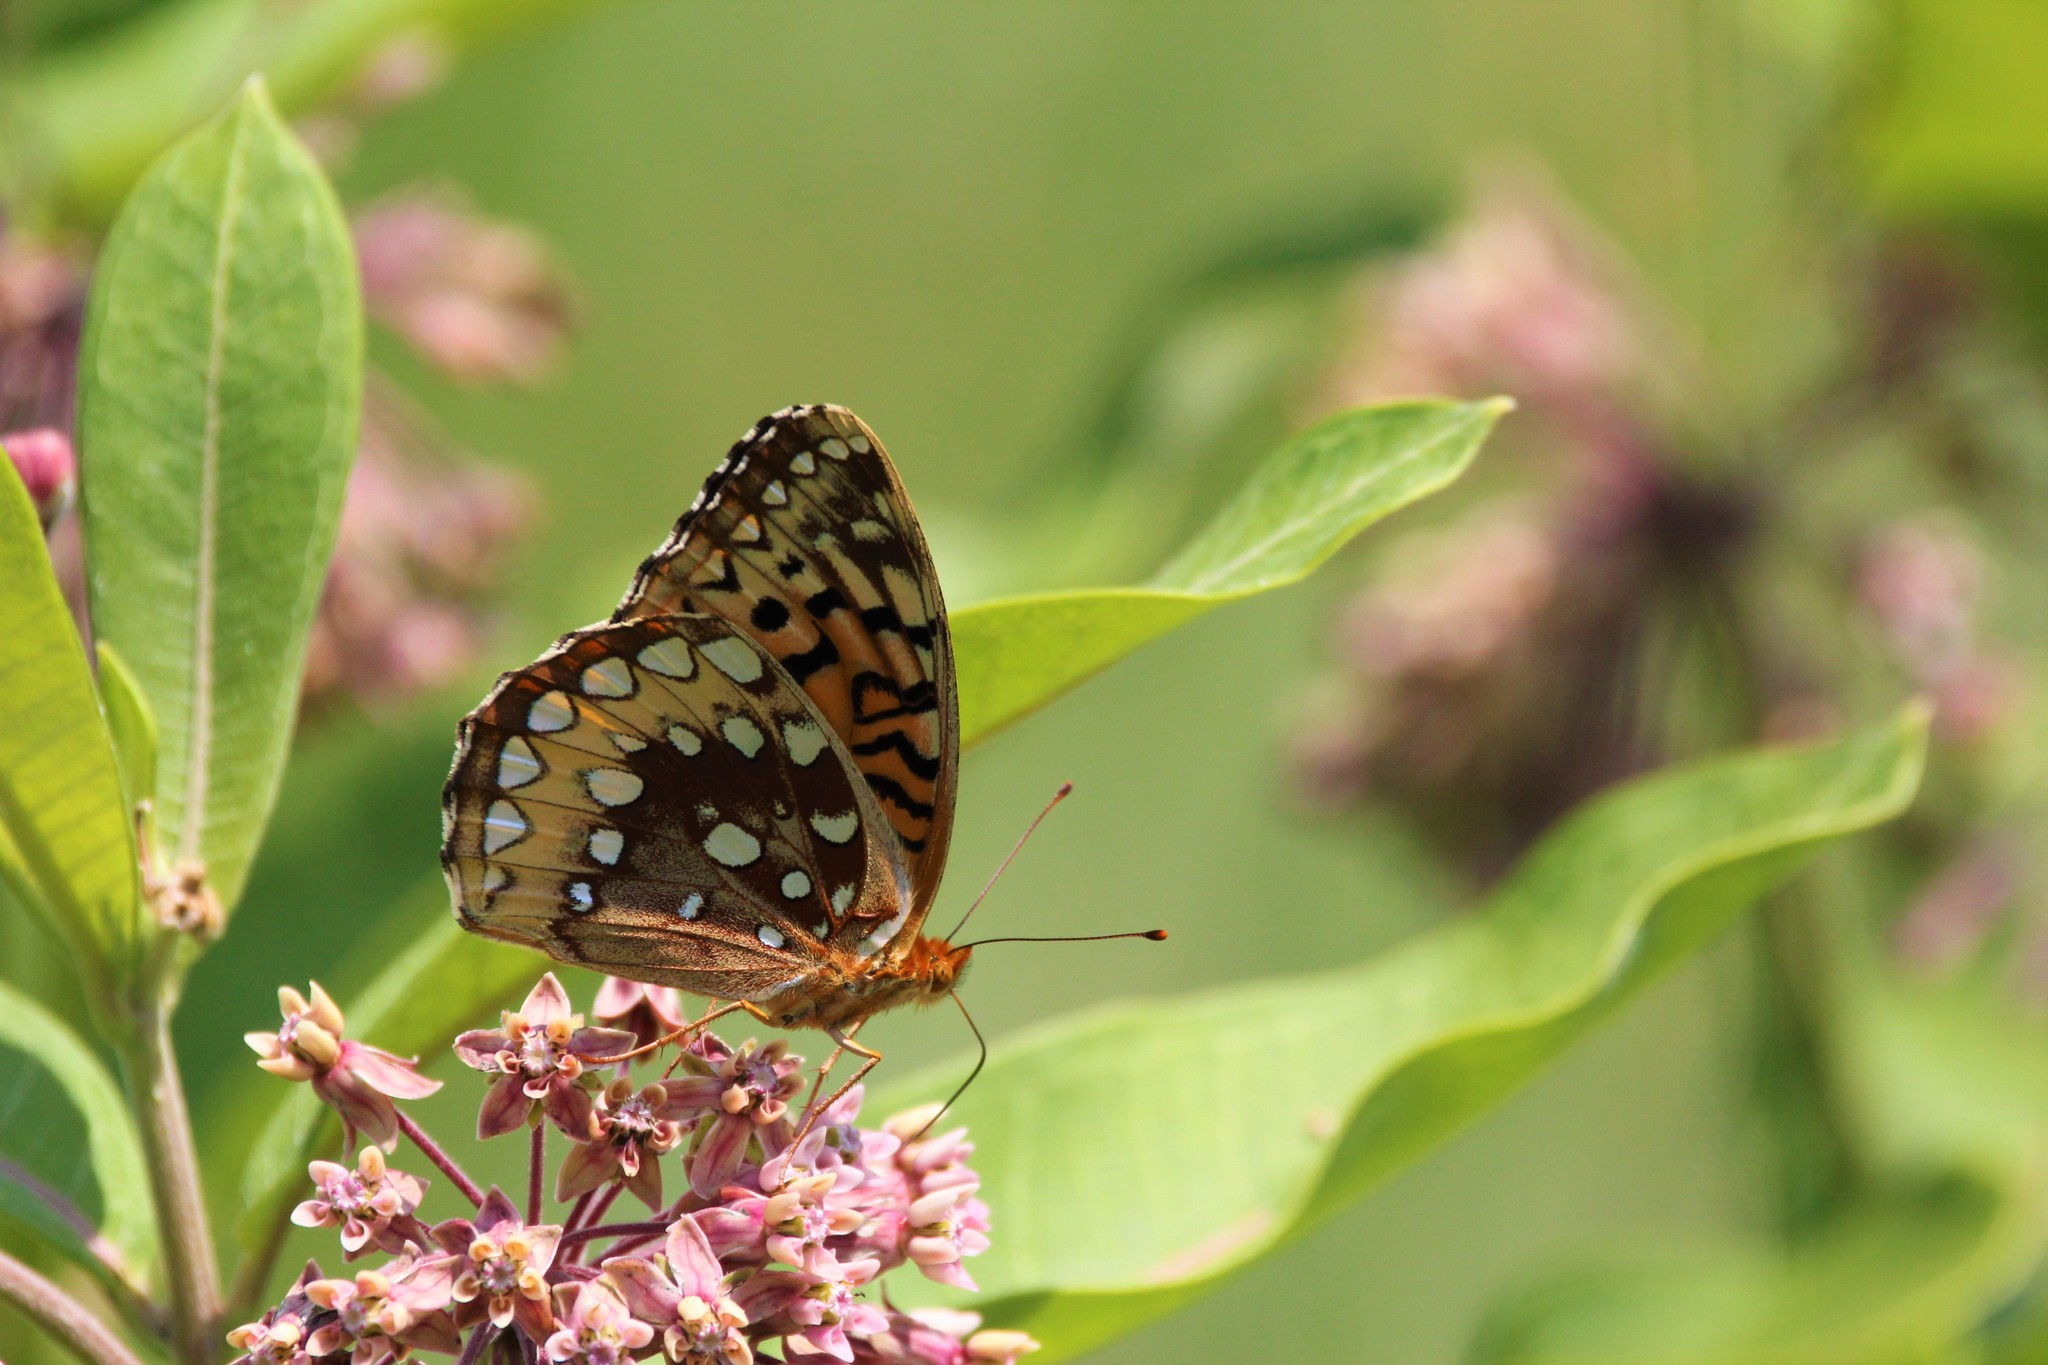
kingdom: Animalia
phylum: Arthropoda
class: Insecta
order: Lepidoptera
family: Nymphalidae
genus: Speyeria
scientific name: Speyeria cybele
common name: Great spangled fritillary
